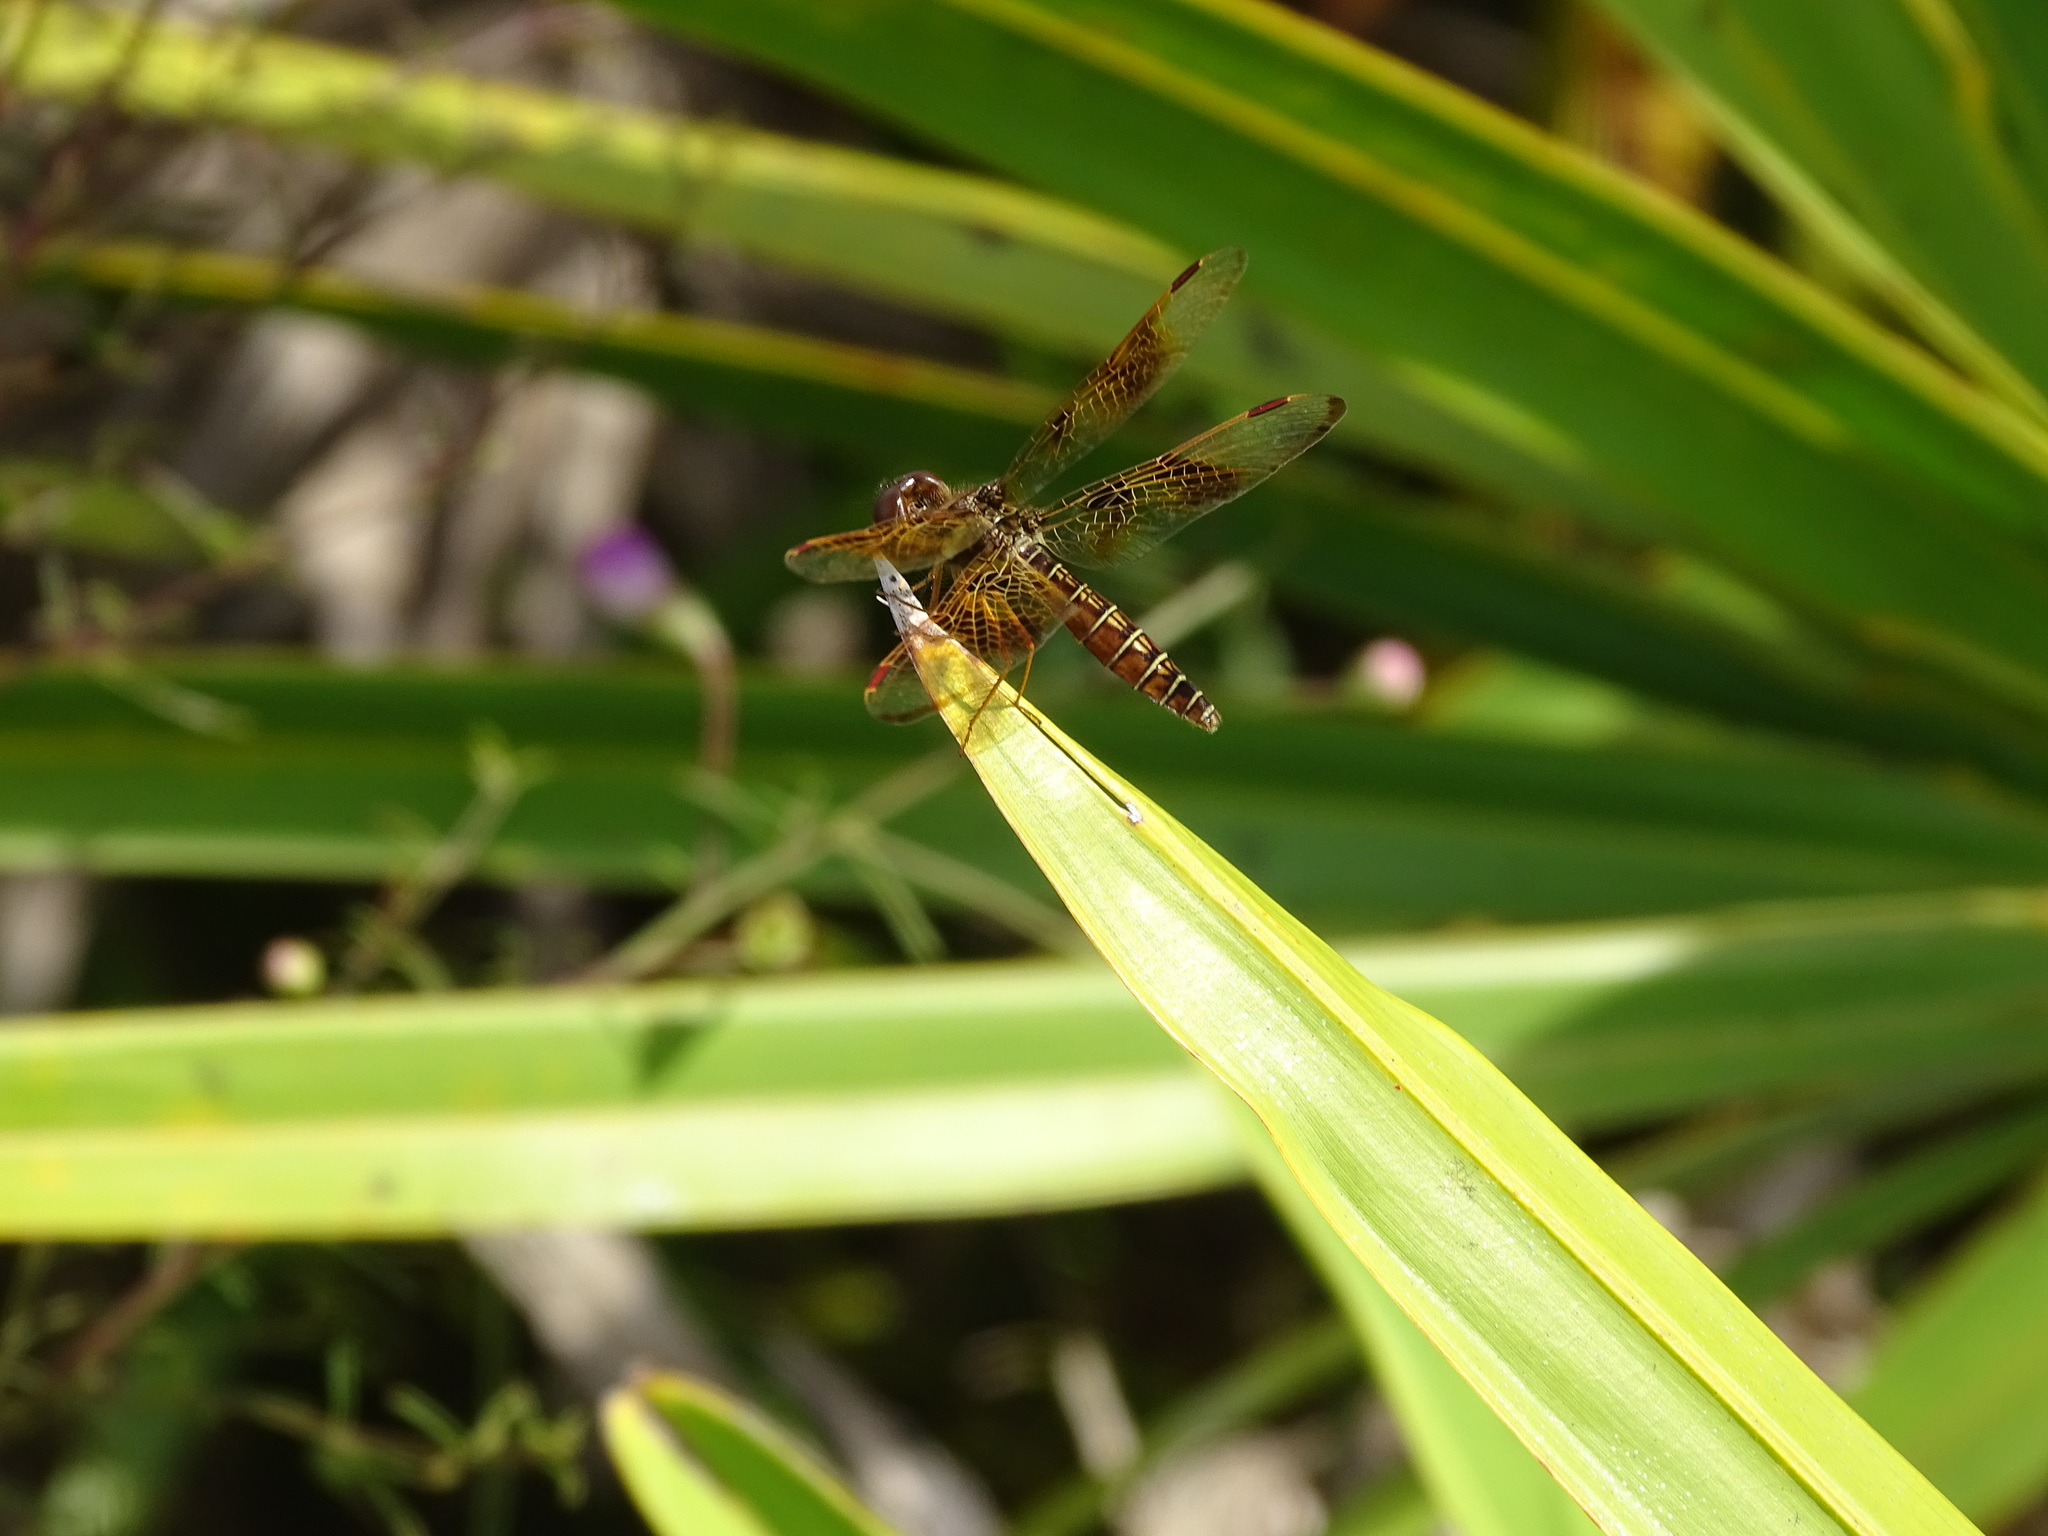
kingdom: Animalia
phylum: Arthropoda
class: Insecta
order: Odonata
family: Libellulidae
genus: Perithemis
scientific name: Perithemis tenera
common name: Eastern amberwing
